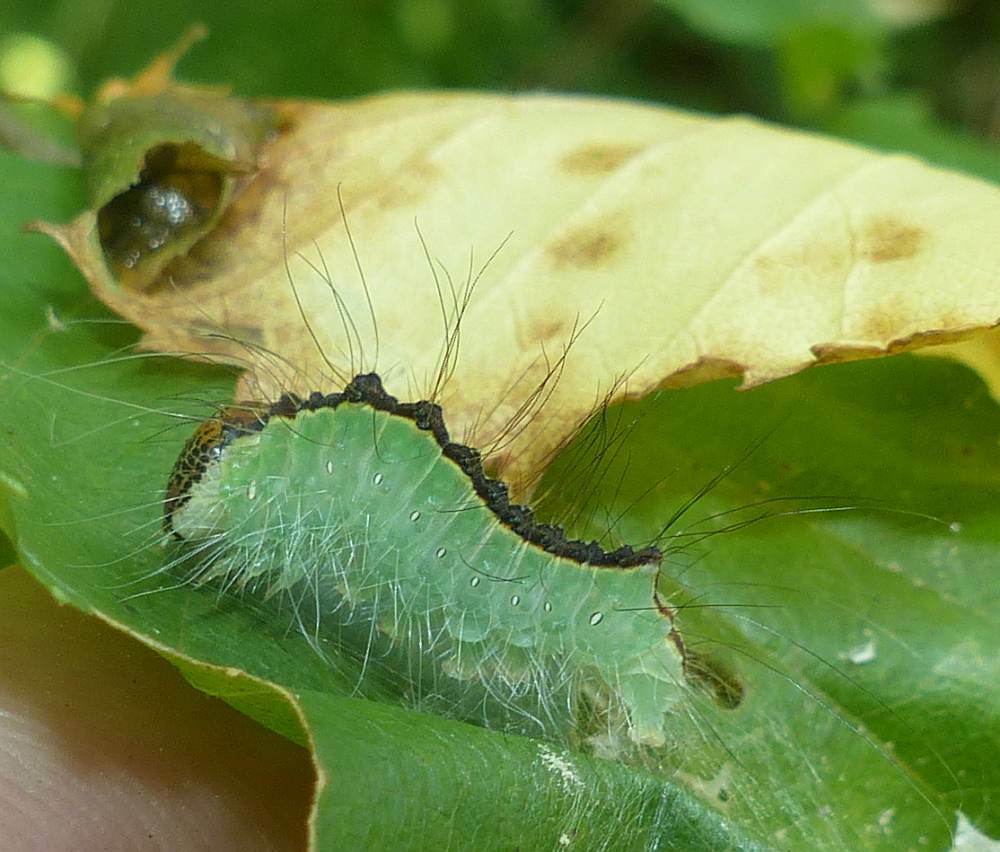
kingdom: Animalia
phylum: Arthropoda
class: Insecta
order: Lepidoptera
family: Noctuidae
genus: Acronicta
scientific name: Acronicta superans
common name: Splendid dagger
